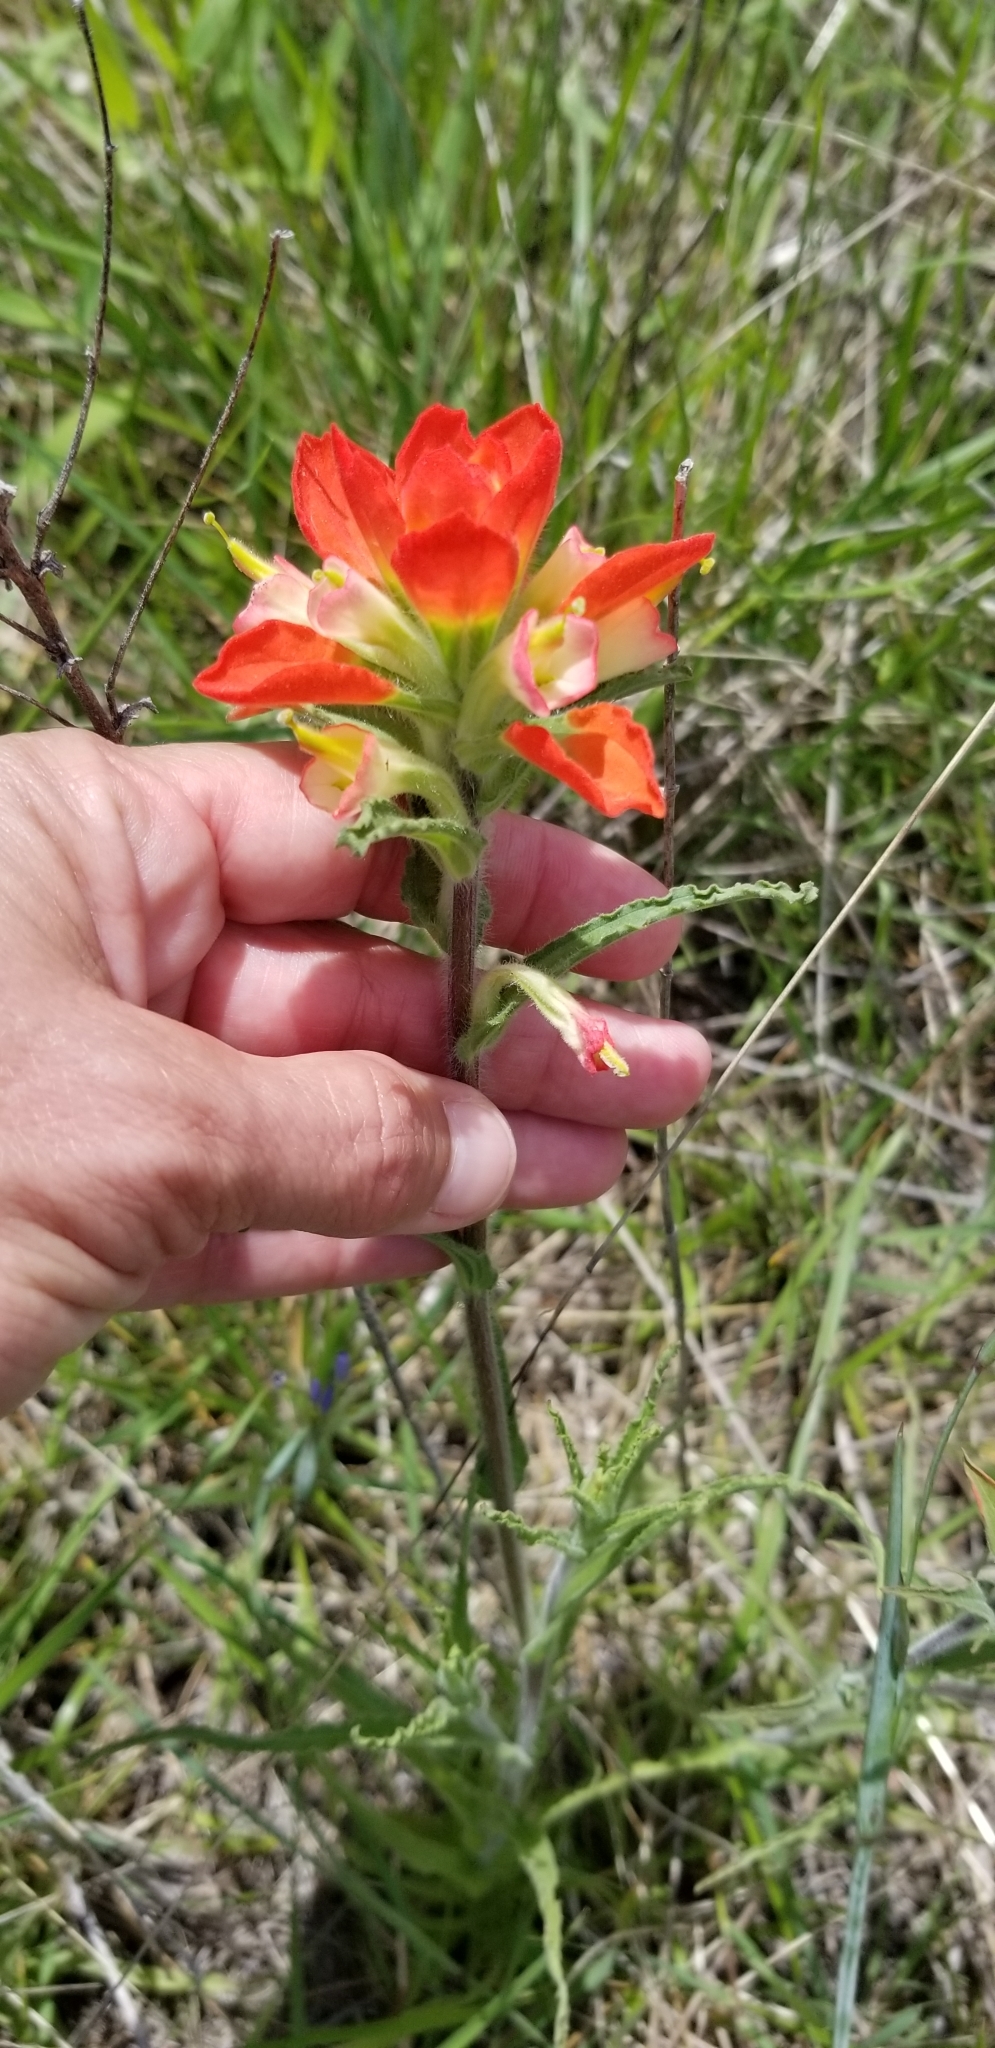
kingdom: Plantae
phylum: Tracheophyta
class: Magnoliopsida
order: Lamiales
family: Orobanchaceae
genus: Castilleja
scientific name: Castilleja indivisa
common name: Texas paintbrush
